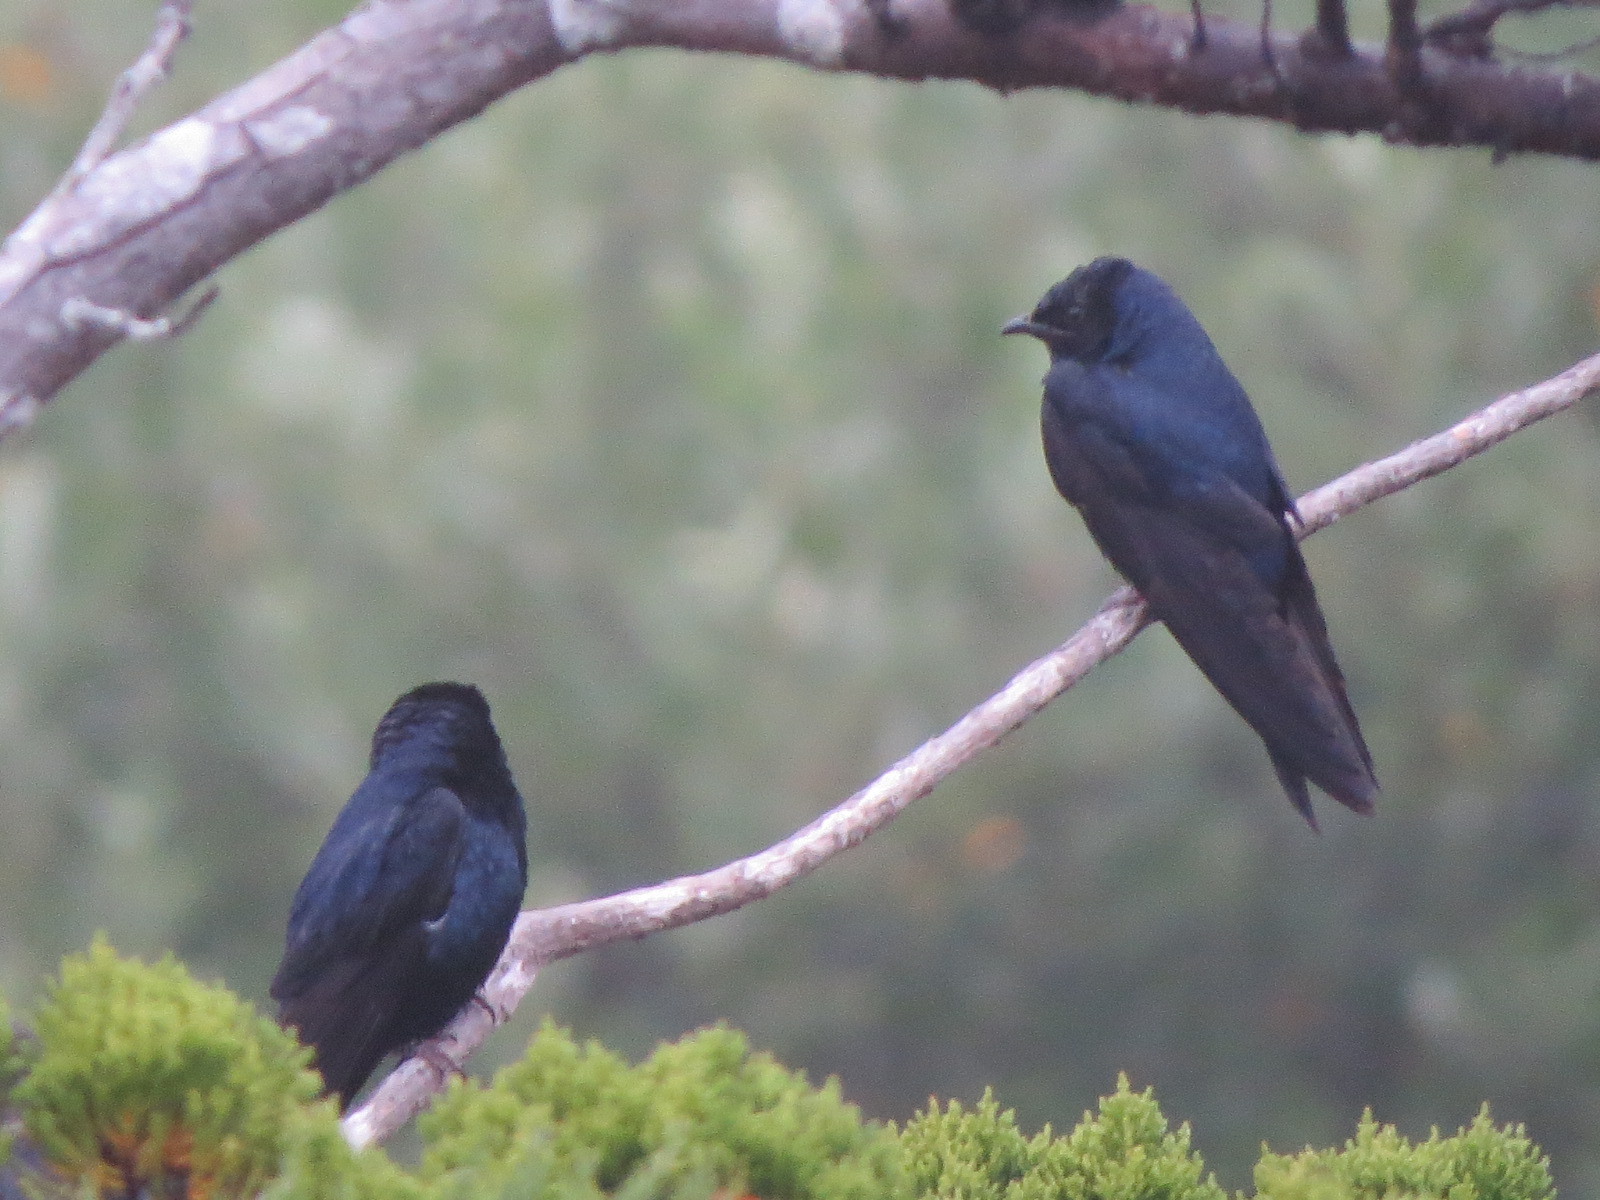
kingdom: Animalia
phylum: Chordata
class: Aves
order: Passeriformes
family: Hirundinidae
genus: Progne
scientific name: Progne subis
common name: Purple martin
